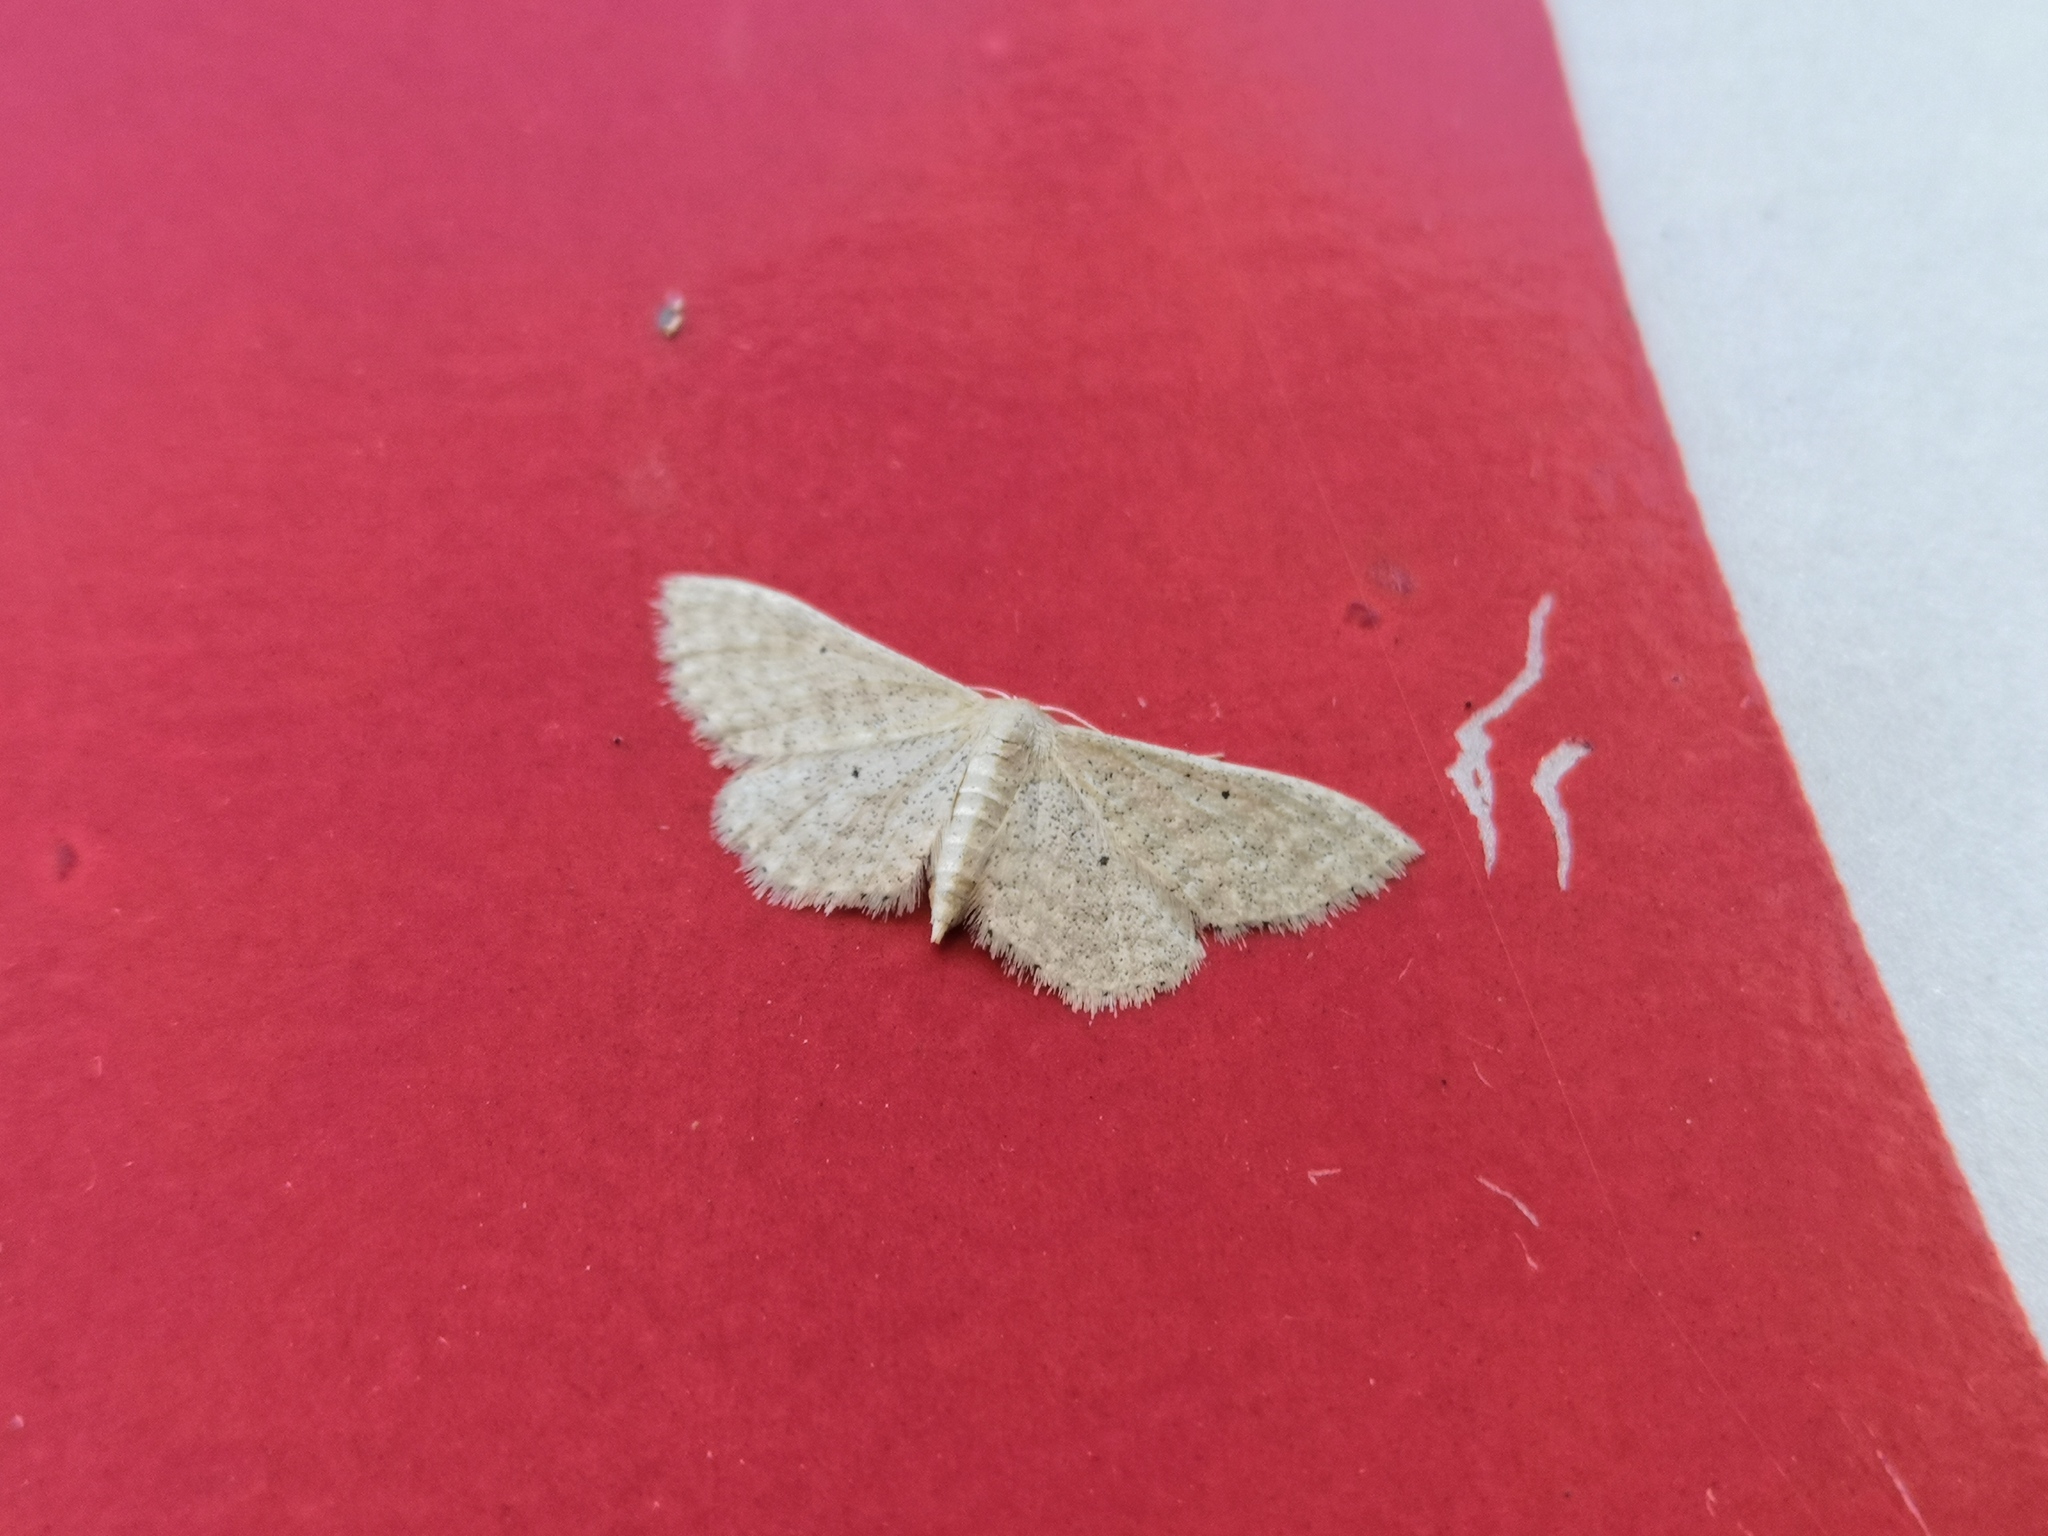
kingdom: Animalia
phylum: Arthropoda
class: Insecta
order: Lepidoptera
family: Geometridae
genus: Idaea
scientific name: Idaea sylvestraria
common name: Dotted borded wave
